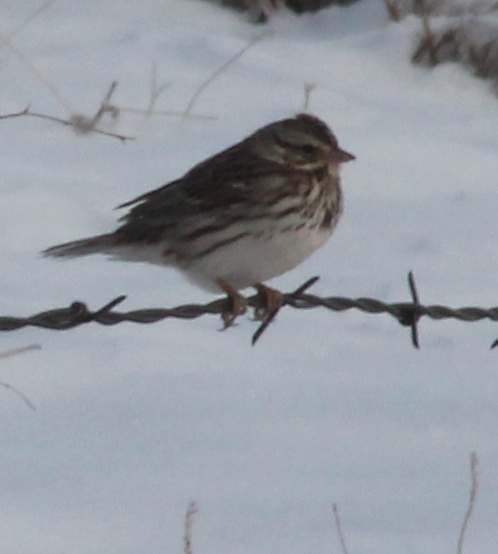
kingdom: Animalia
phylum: Chordata
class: Aves
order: Passeriformes
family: Passerellidae
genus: Passerculus
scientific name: Passerculus sandwichensis
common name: Savannah sparrow
